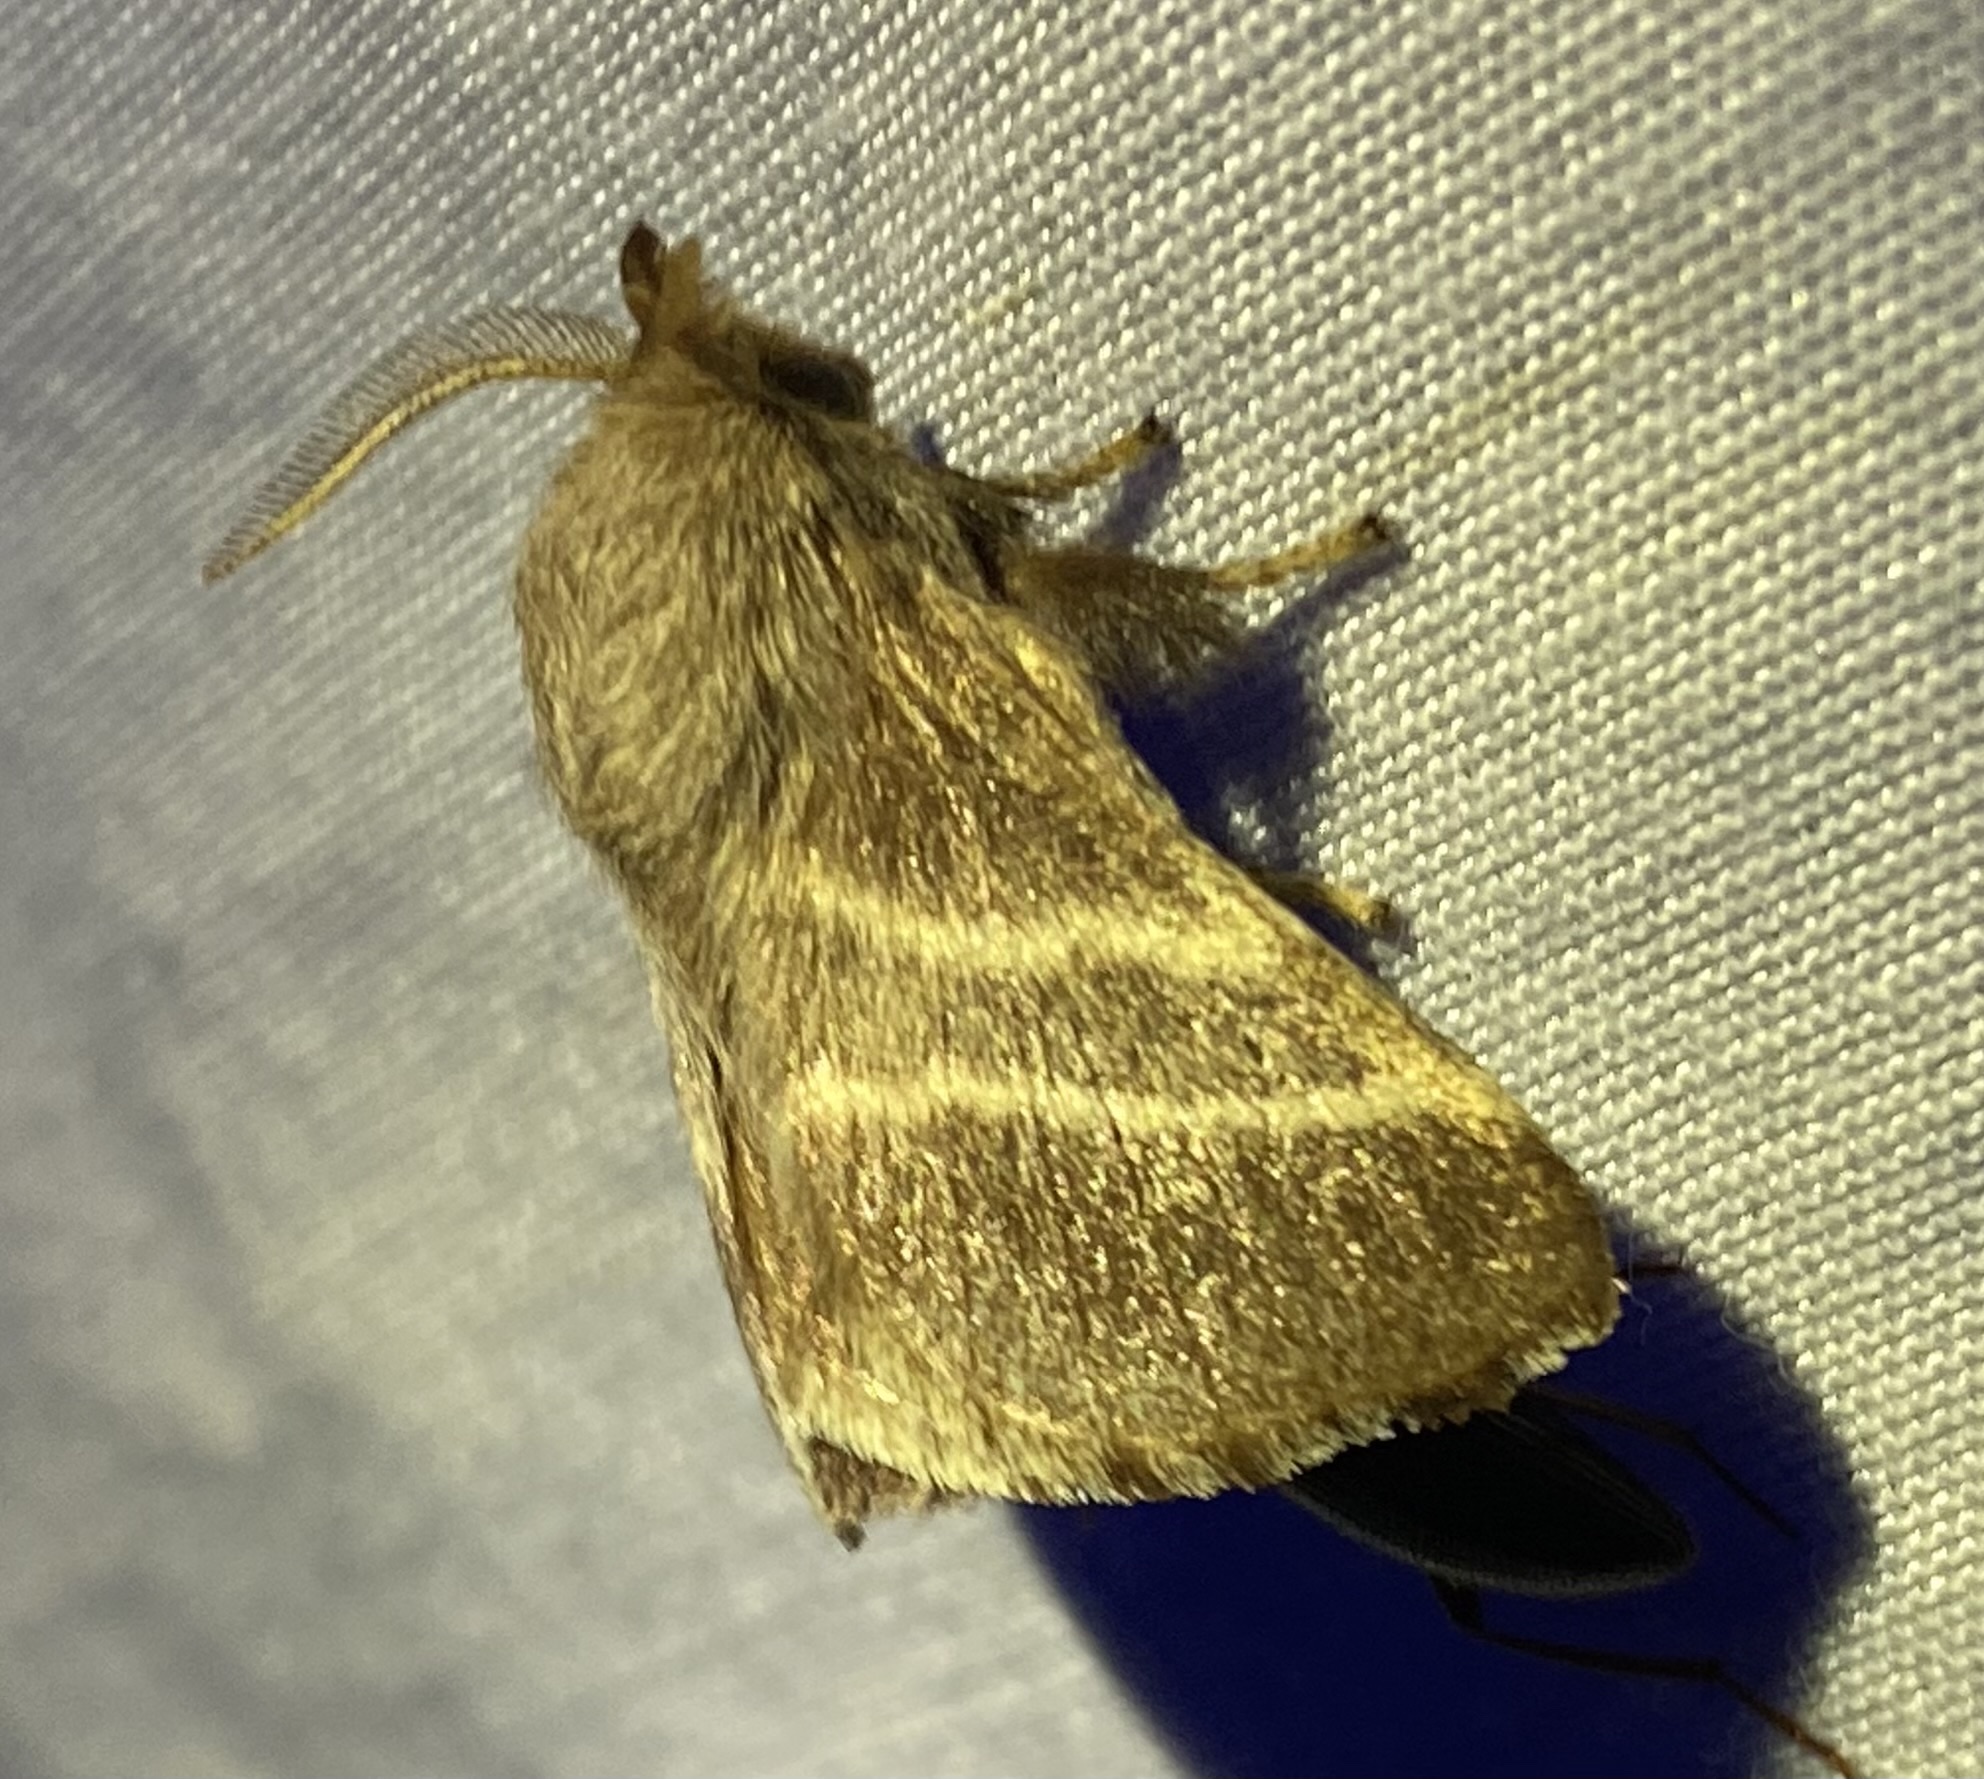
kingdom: Animalia
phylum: Arthropoda
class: Insecta
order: Lepidoptera
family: Lasiocampidae
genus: Malacosoma
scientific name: Malacosoma americana
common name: Eastern tent caterpillar moth
